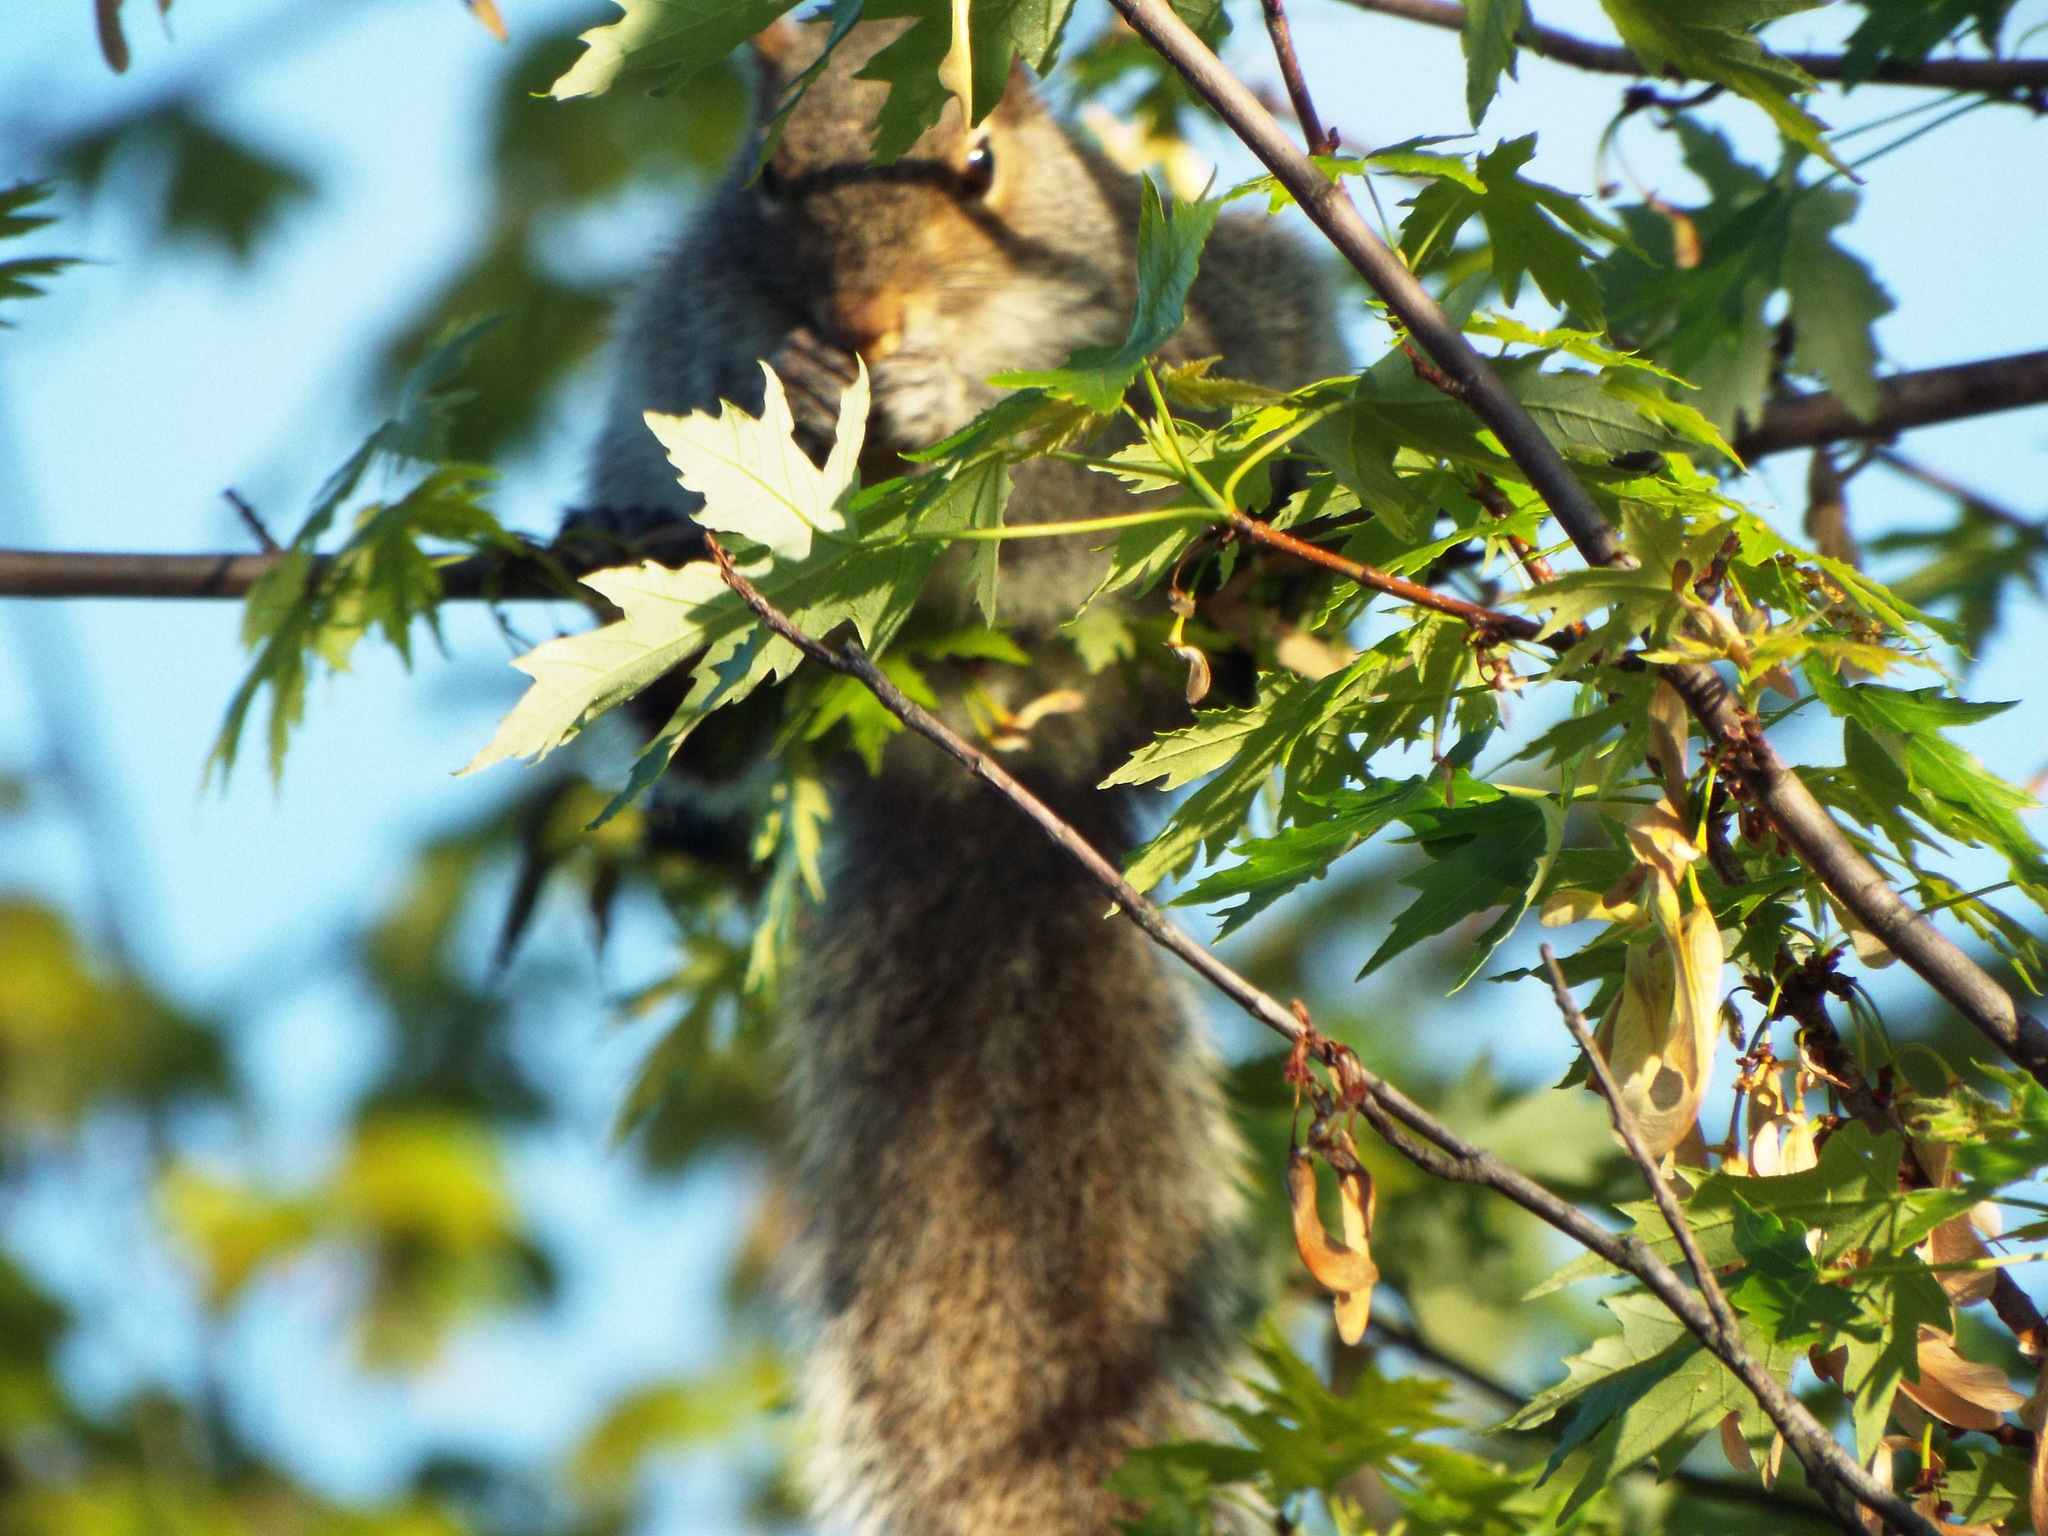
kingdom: Animalia
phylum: Chordata
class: Mammalia
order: Rodentia
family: Sciuridae
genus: Sciurus
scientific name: Sciurus carolinensis
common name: Eastern gray squirrel
